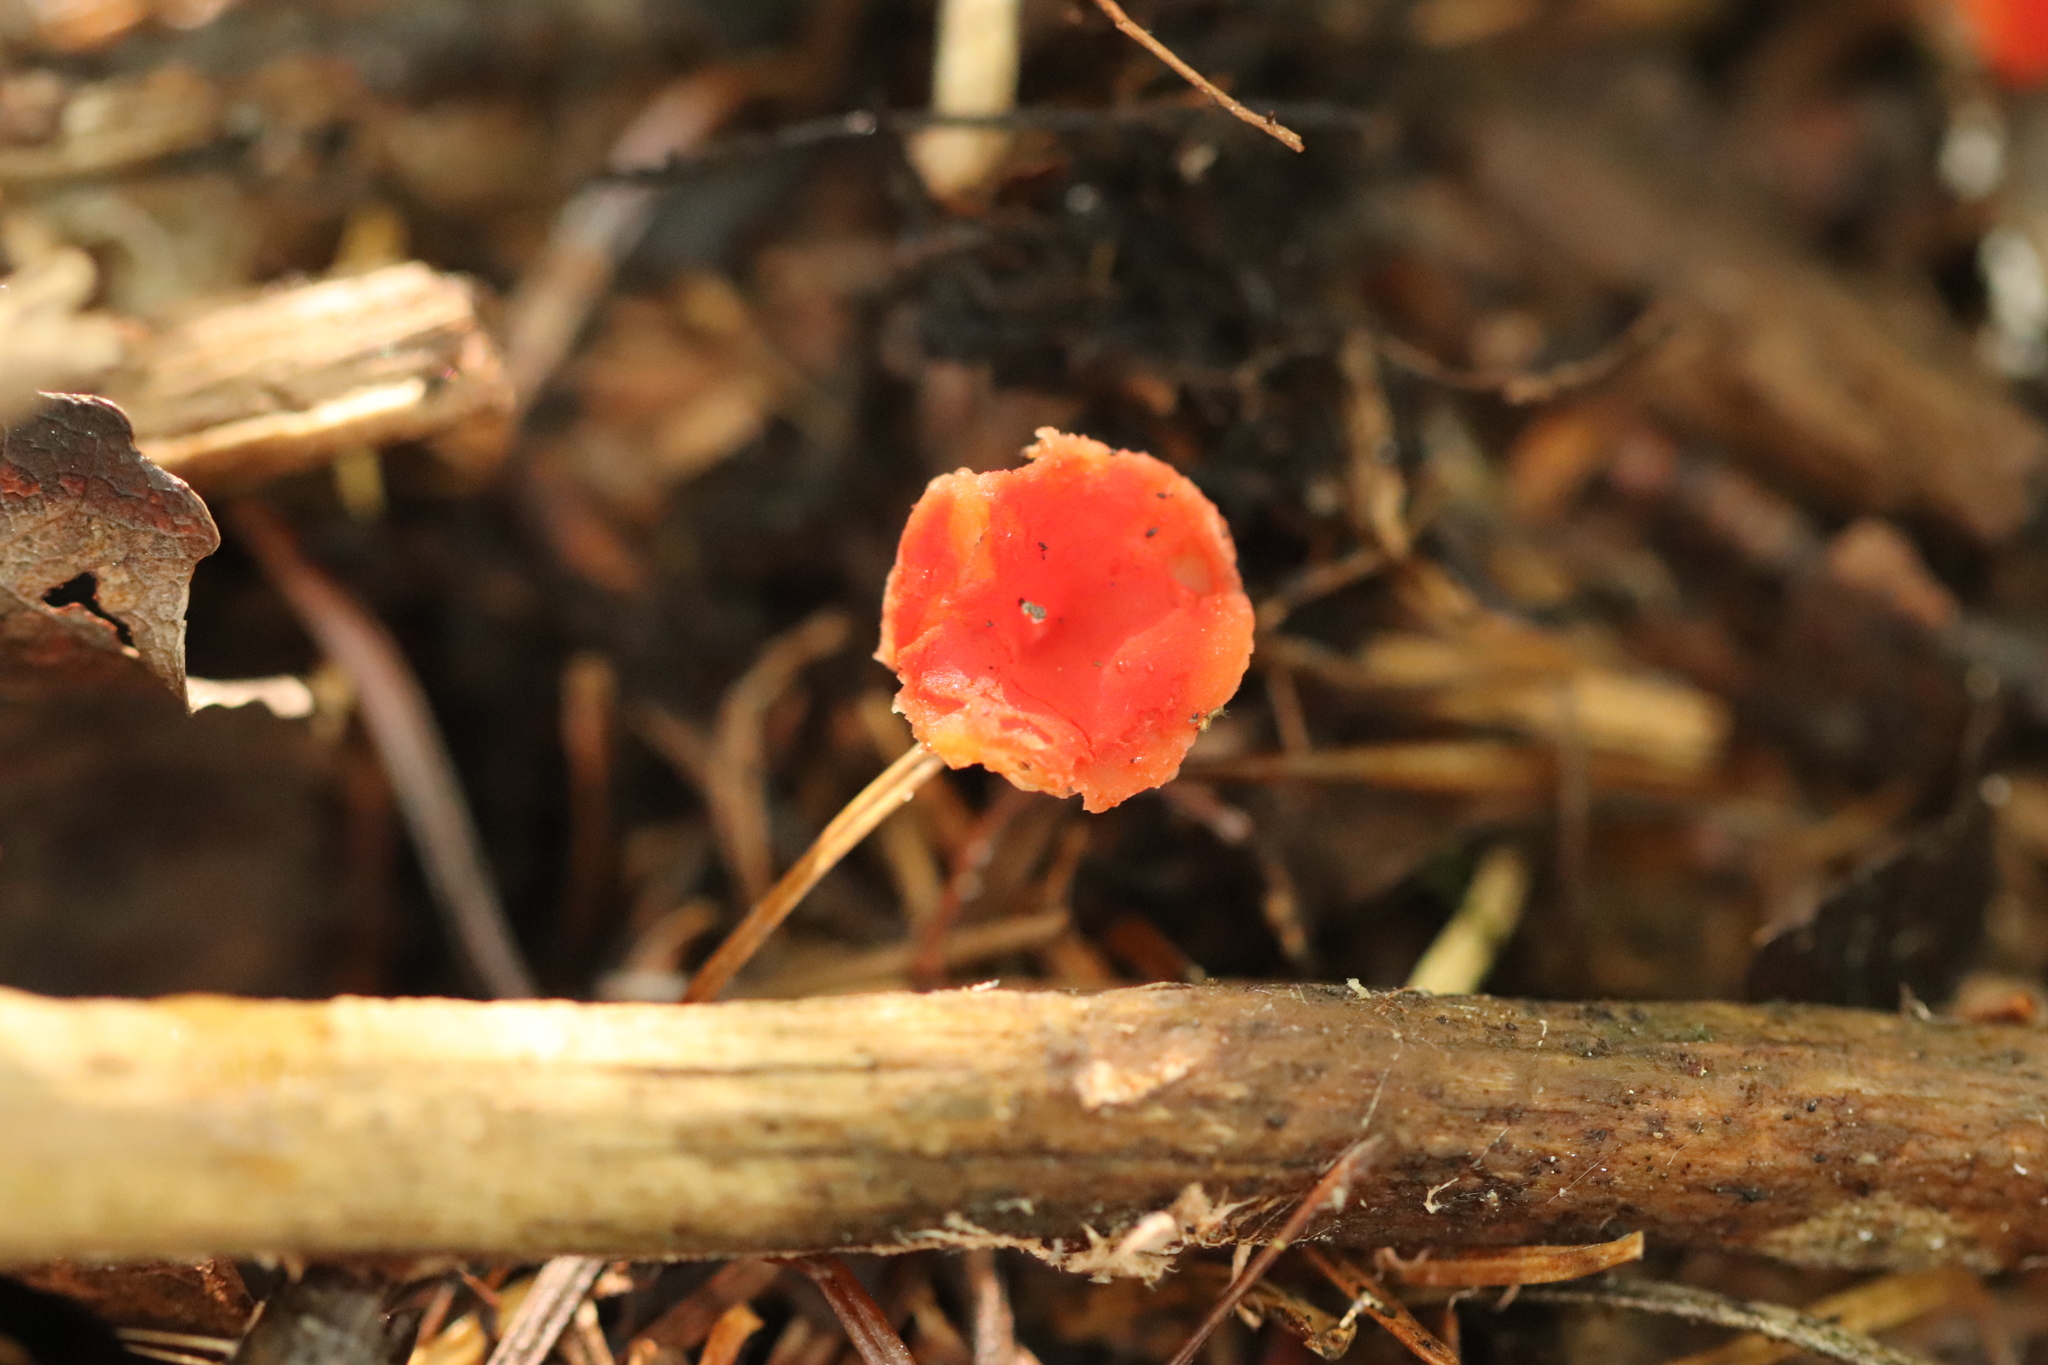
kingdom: Fungi
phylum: Ascomycota
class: Pezizomycetes
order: Pezizales
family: Sarcoscyphaceae
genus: Microstoma
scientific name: Microstoma protractum
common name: Rosy goblet
